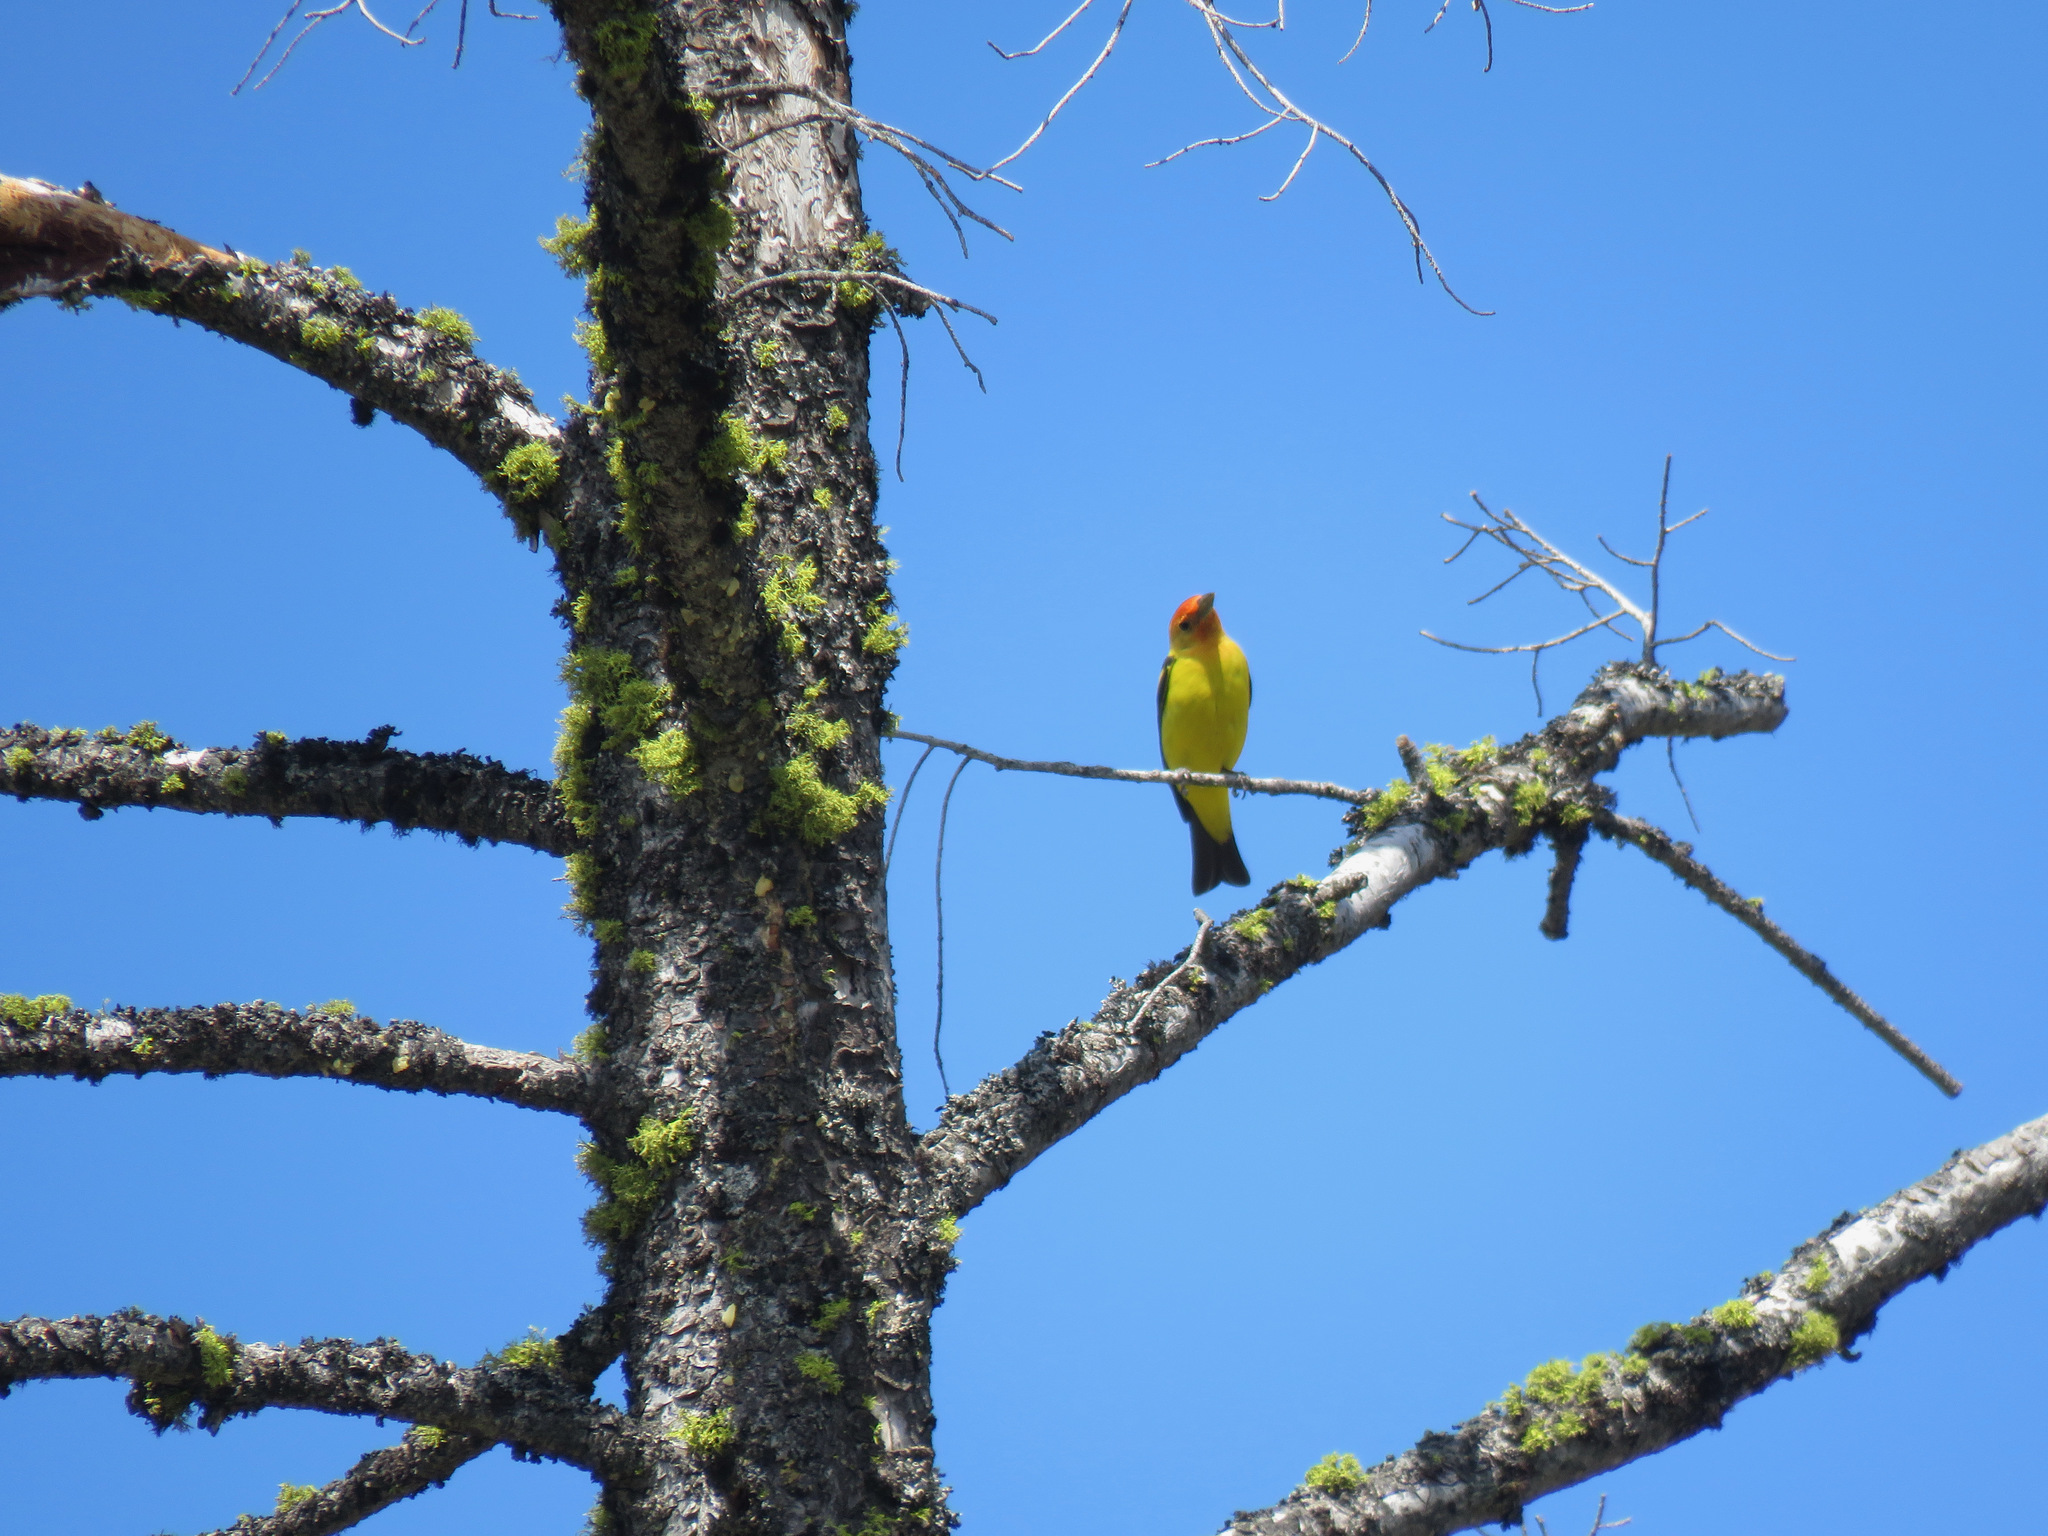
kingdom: Animalia
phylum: Chordata
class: Aves
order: Passeriformes
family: Cardinalidae
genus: Piranga
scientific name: Piranga ludoviciana
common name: Western tanager
